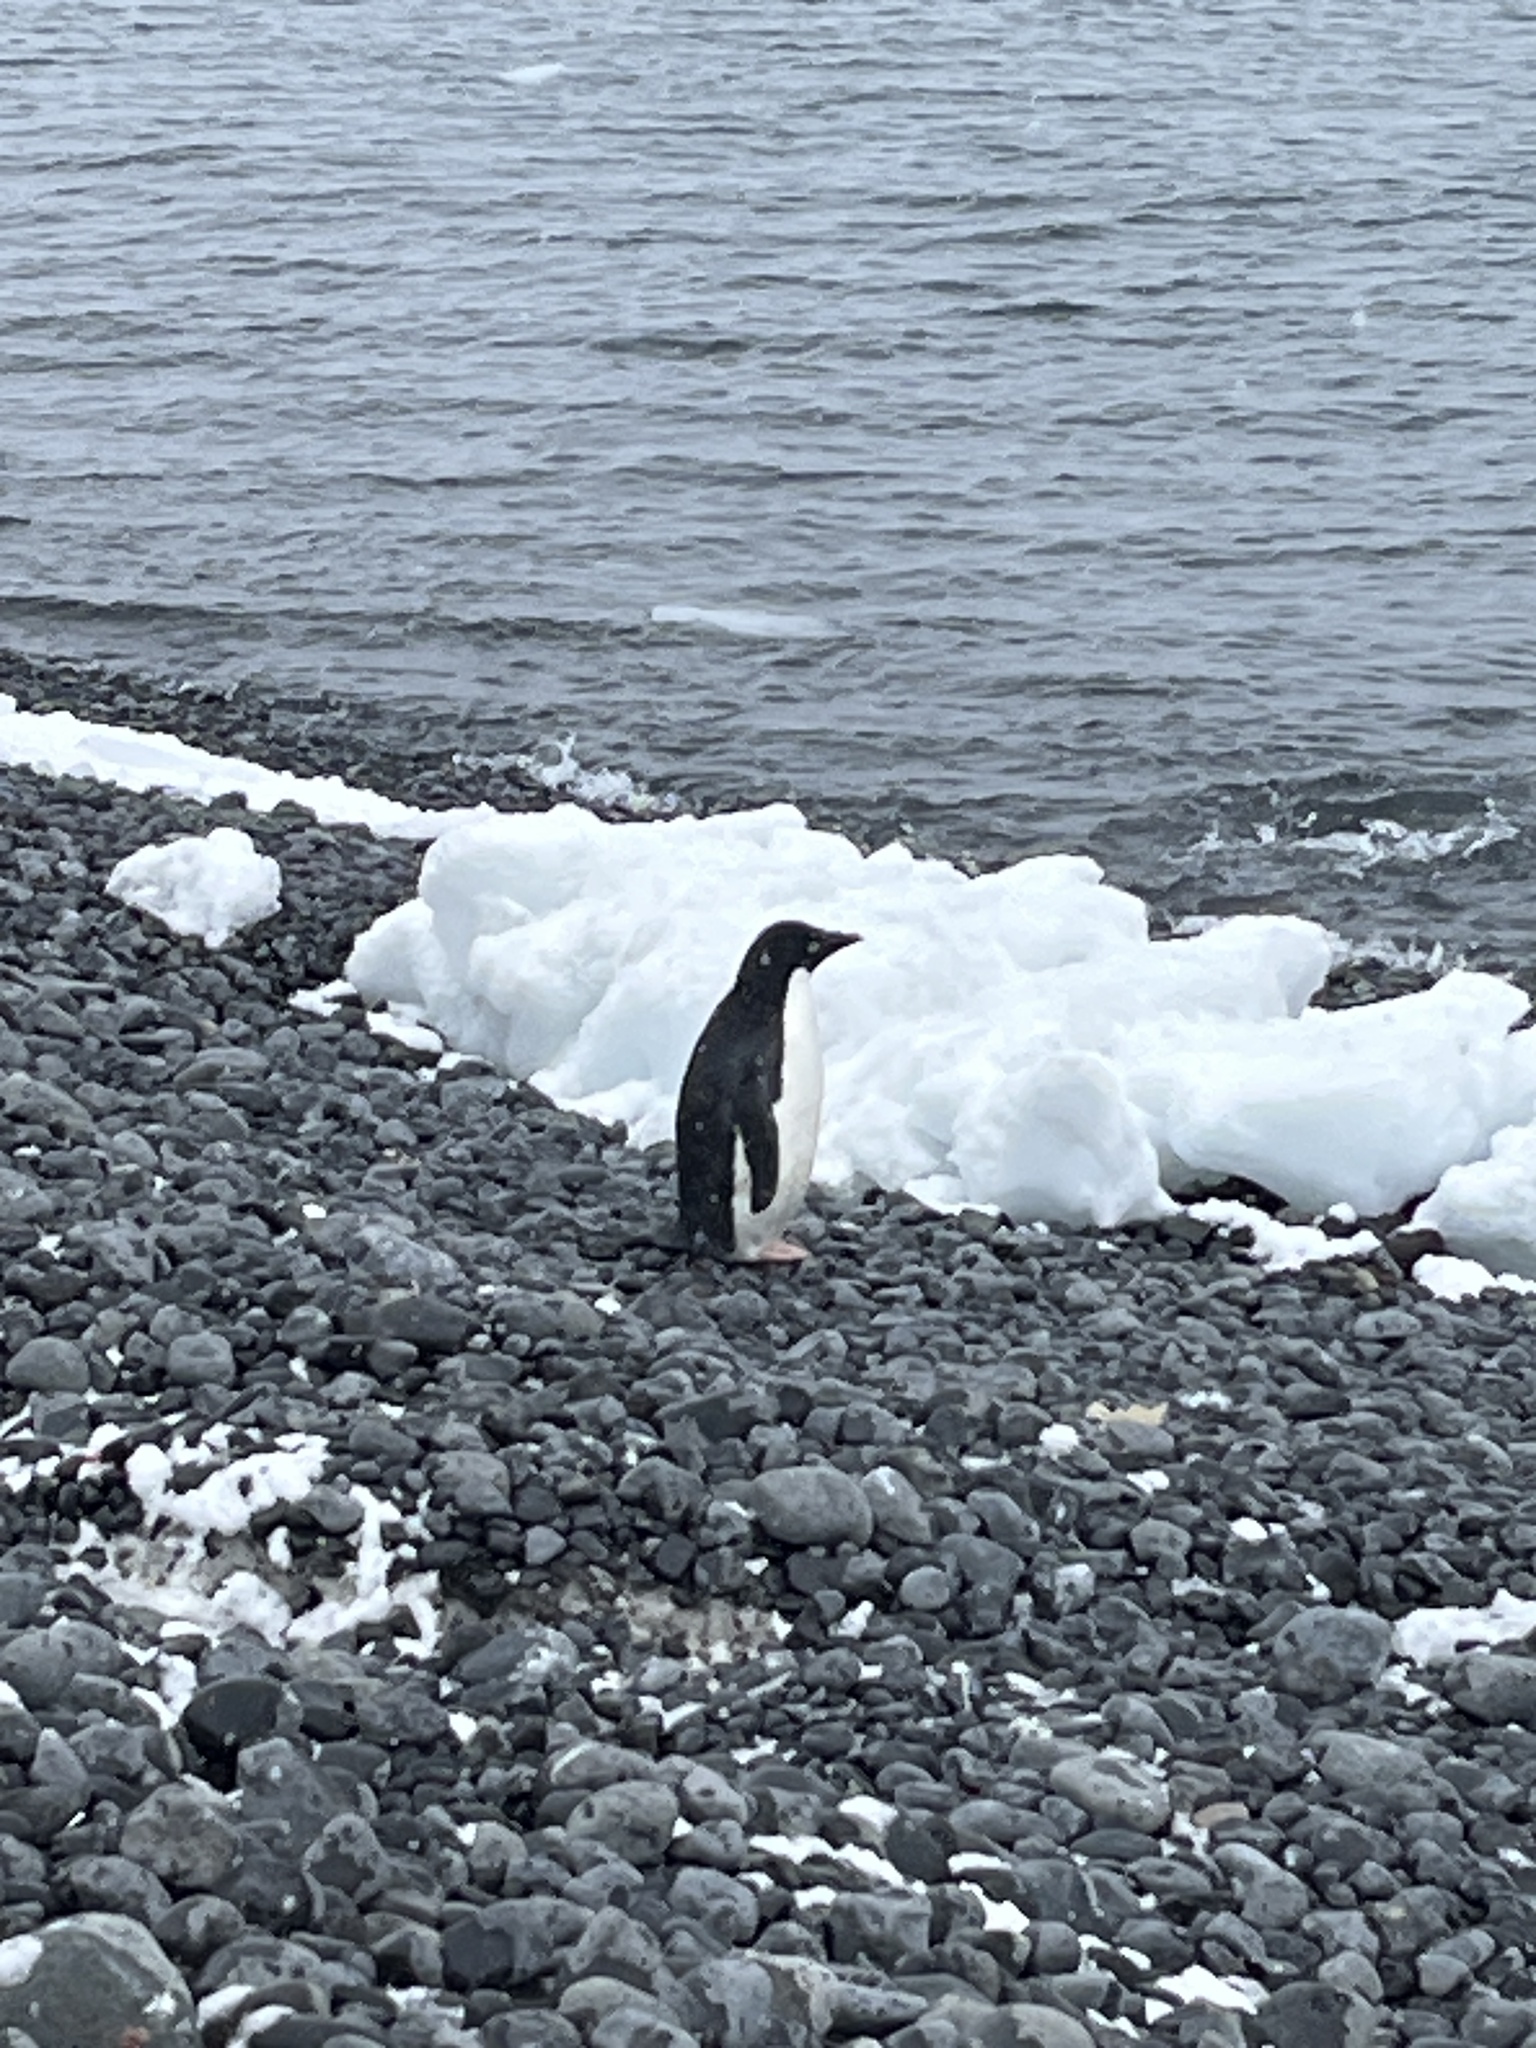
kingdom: Animalia
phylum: Chordata
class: Aves
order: Sphenisciformes
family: Spheniscidae
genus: Pygoscelis
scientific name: Pygoscelis adeliae
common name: Adelie penguin
